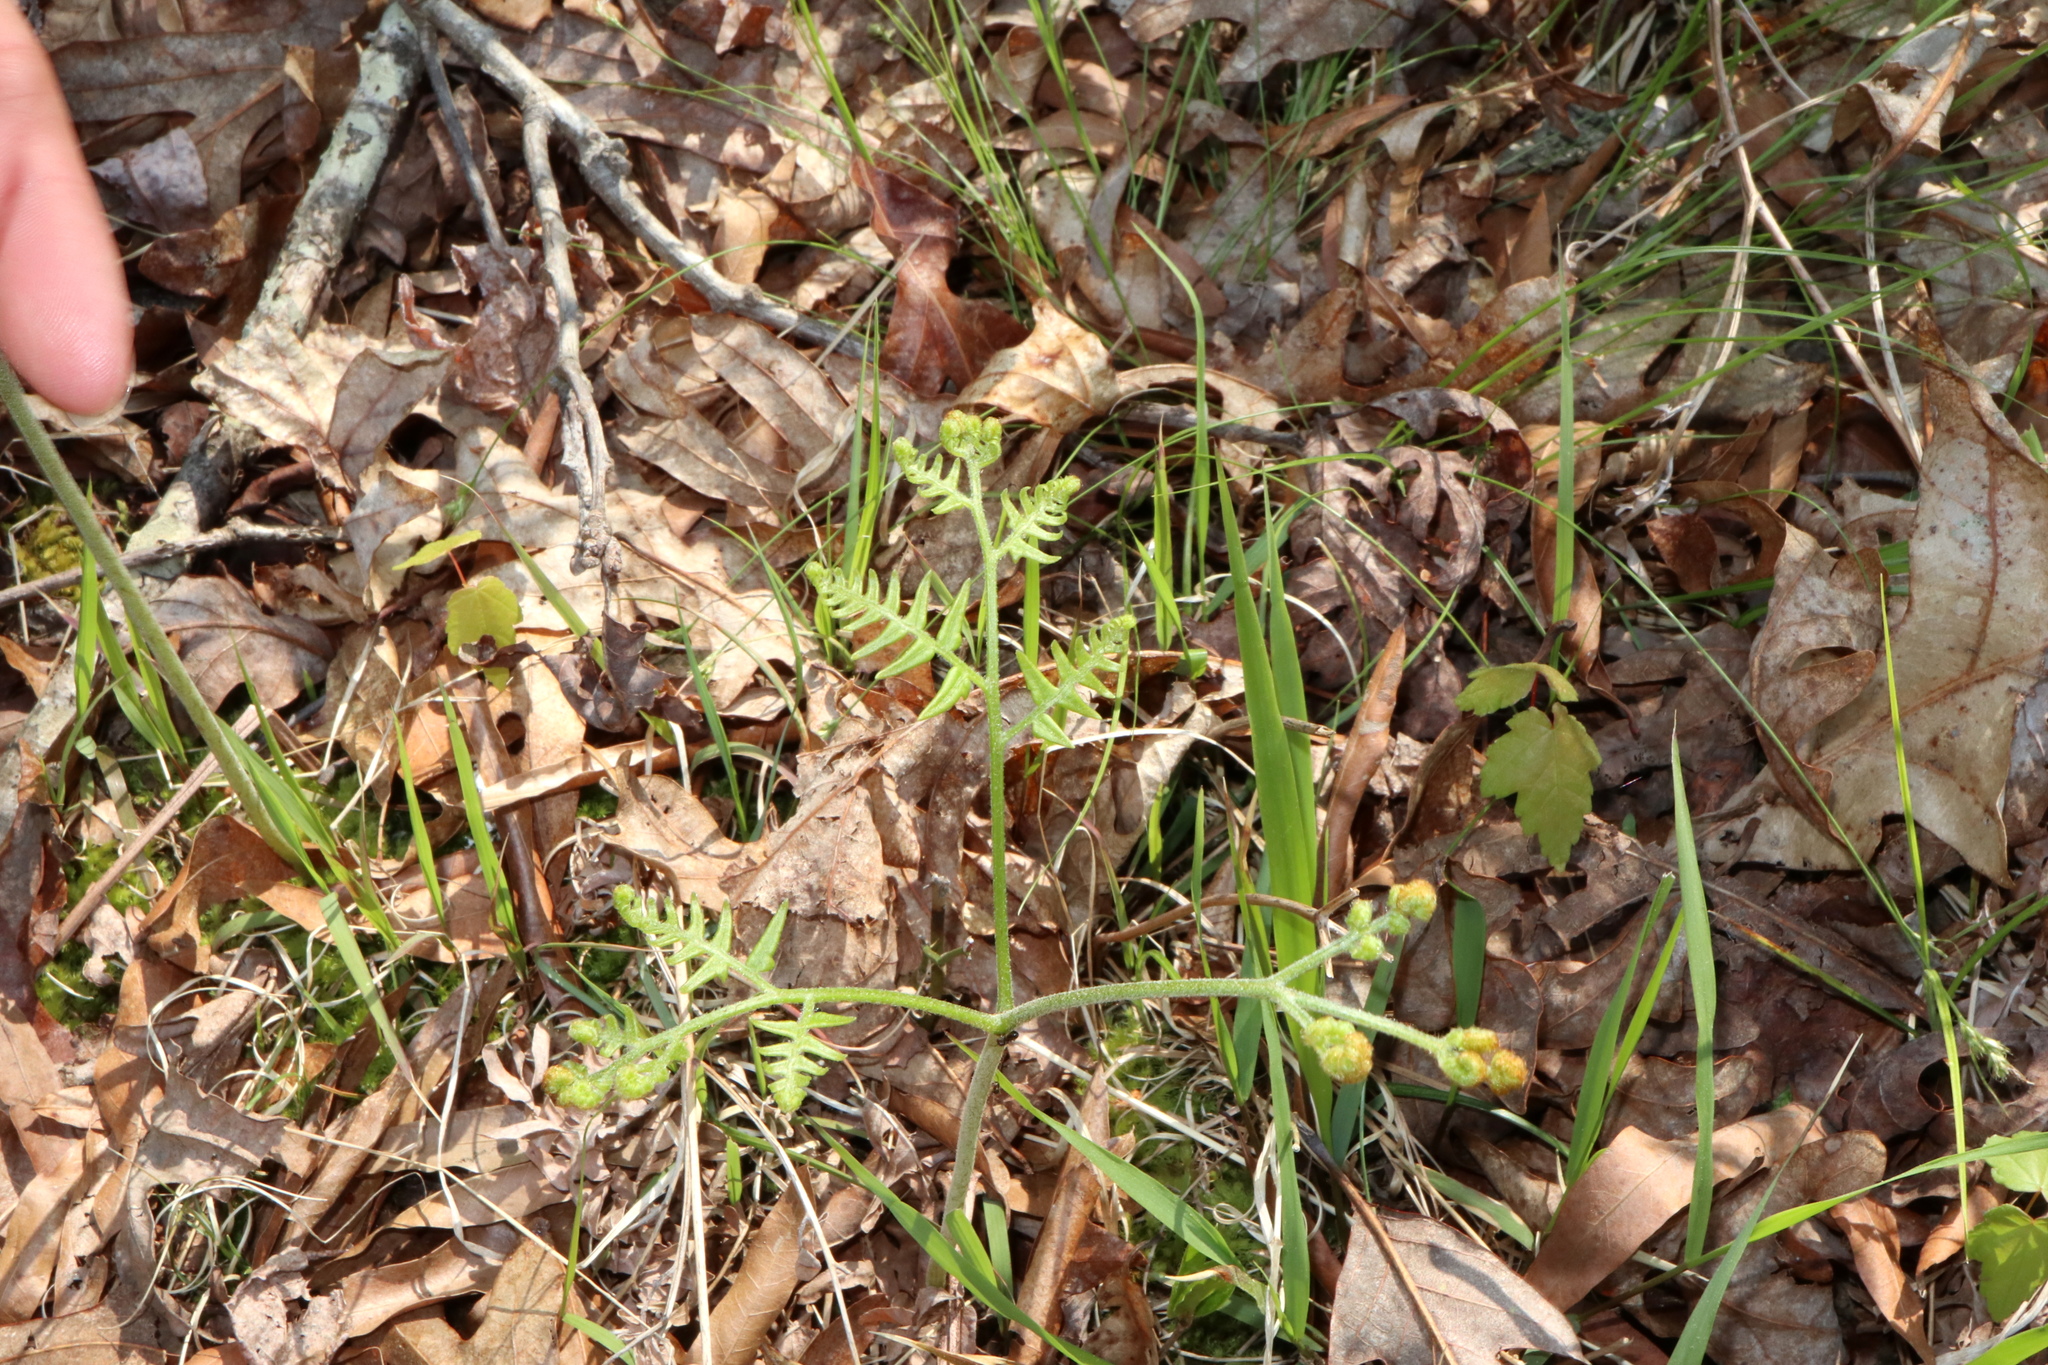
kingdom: Plantae
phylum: Tracheophyta
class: Polypodiopsida
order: Polypodiales
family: Dennstaedtiaceae
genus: Pteridium
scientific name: Pteridium aquilinum
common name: Bracken
